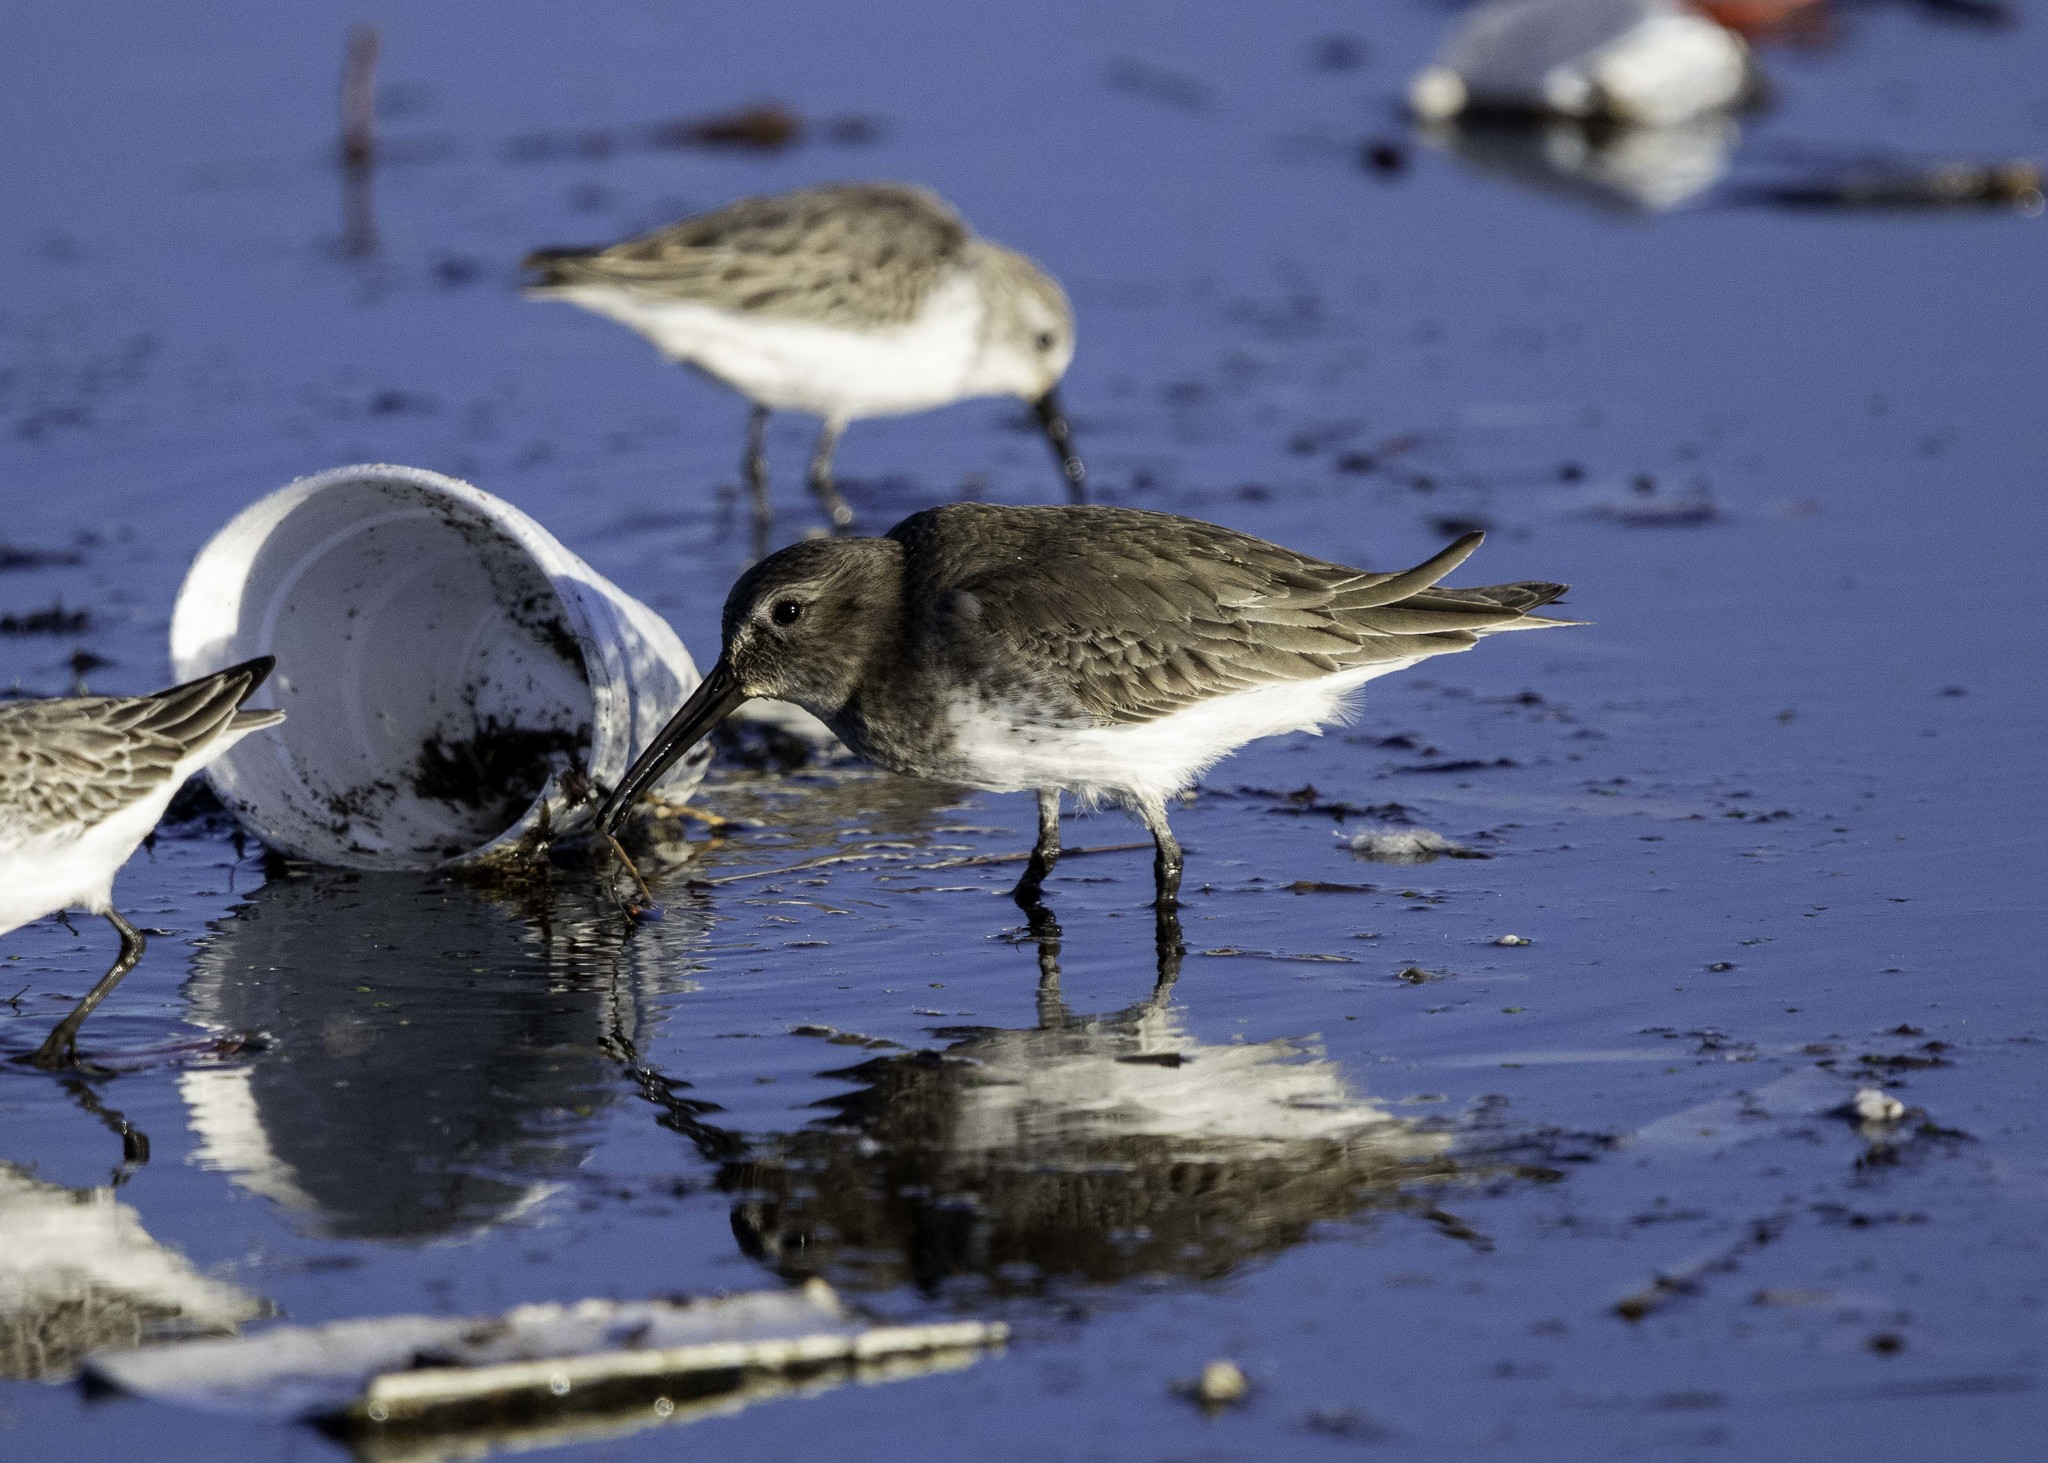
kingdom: Animalia
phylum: Chordata
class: Aves
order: Charadriiformes
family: Scolopacidae
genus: Calidris
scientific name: Calidris alpina
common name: Dunlin
